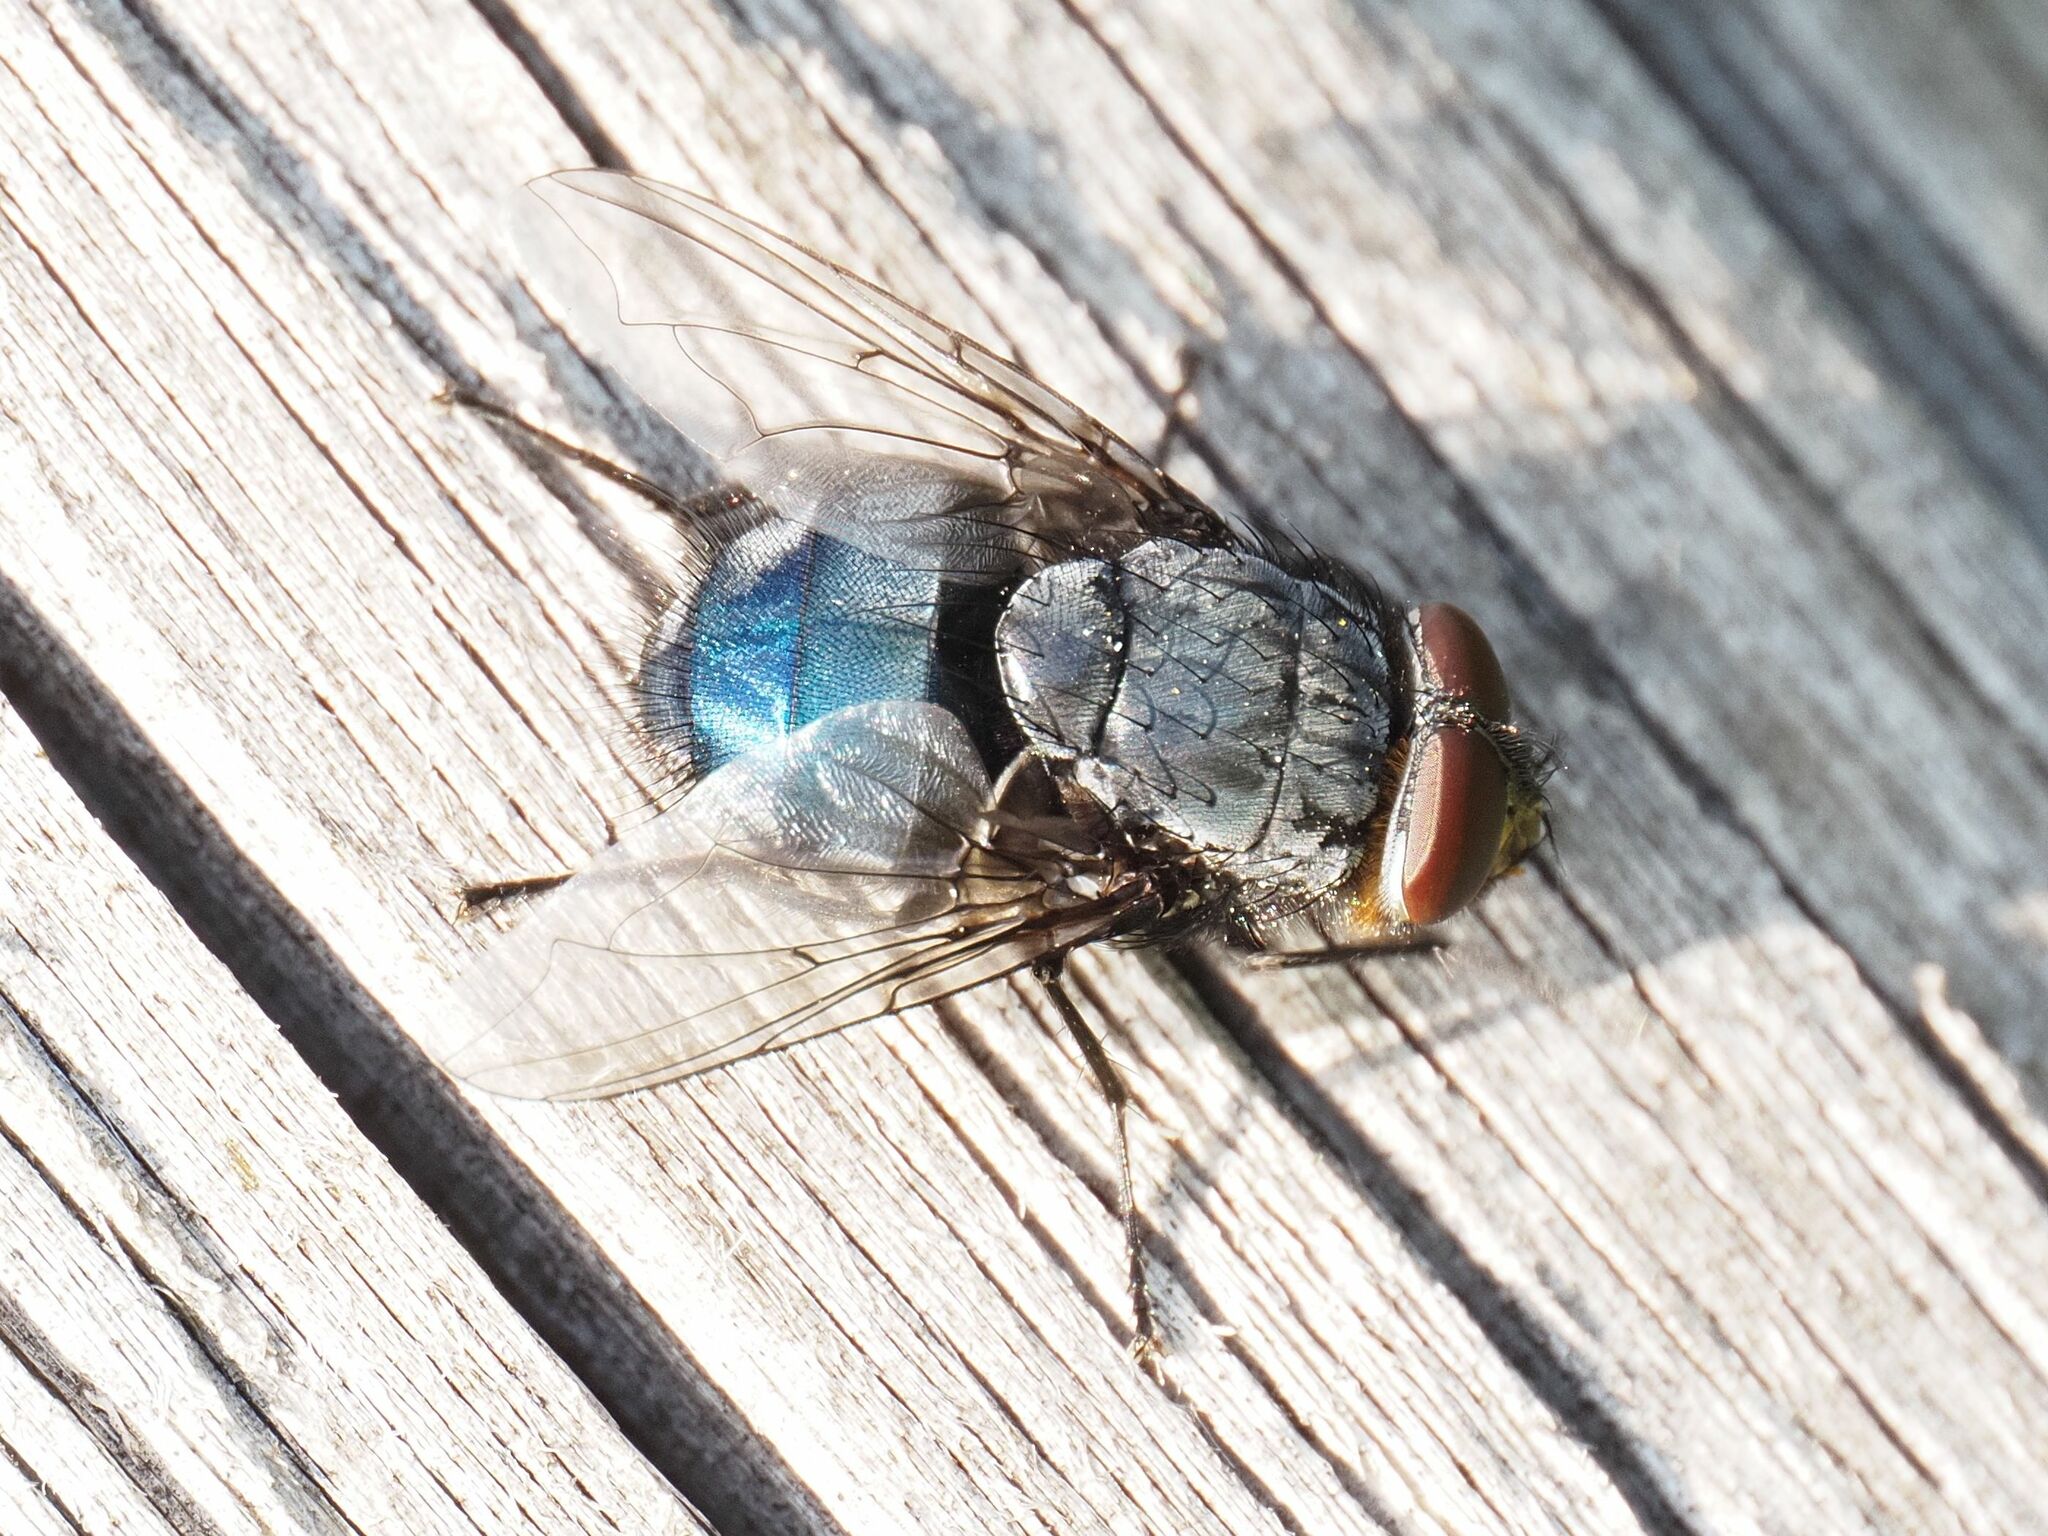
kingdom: Animalia
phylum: Arthropoda
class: Insecta
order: Diptera
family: Calliphoridae
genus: Calliphora
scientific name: Calliphora vomitoria
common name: Blue bottle fly
